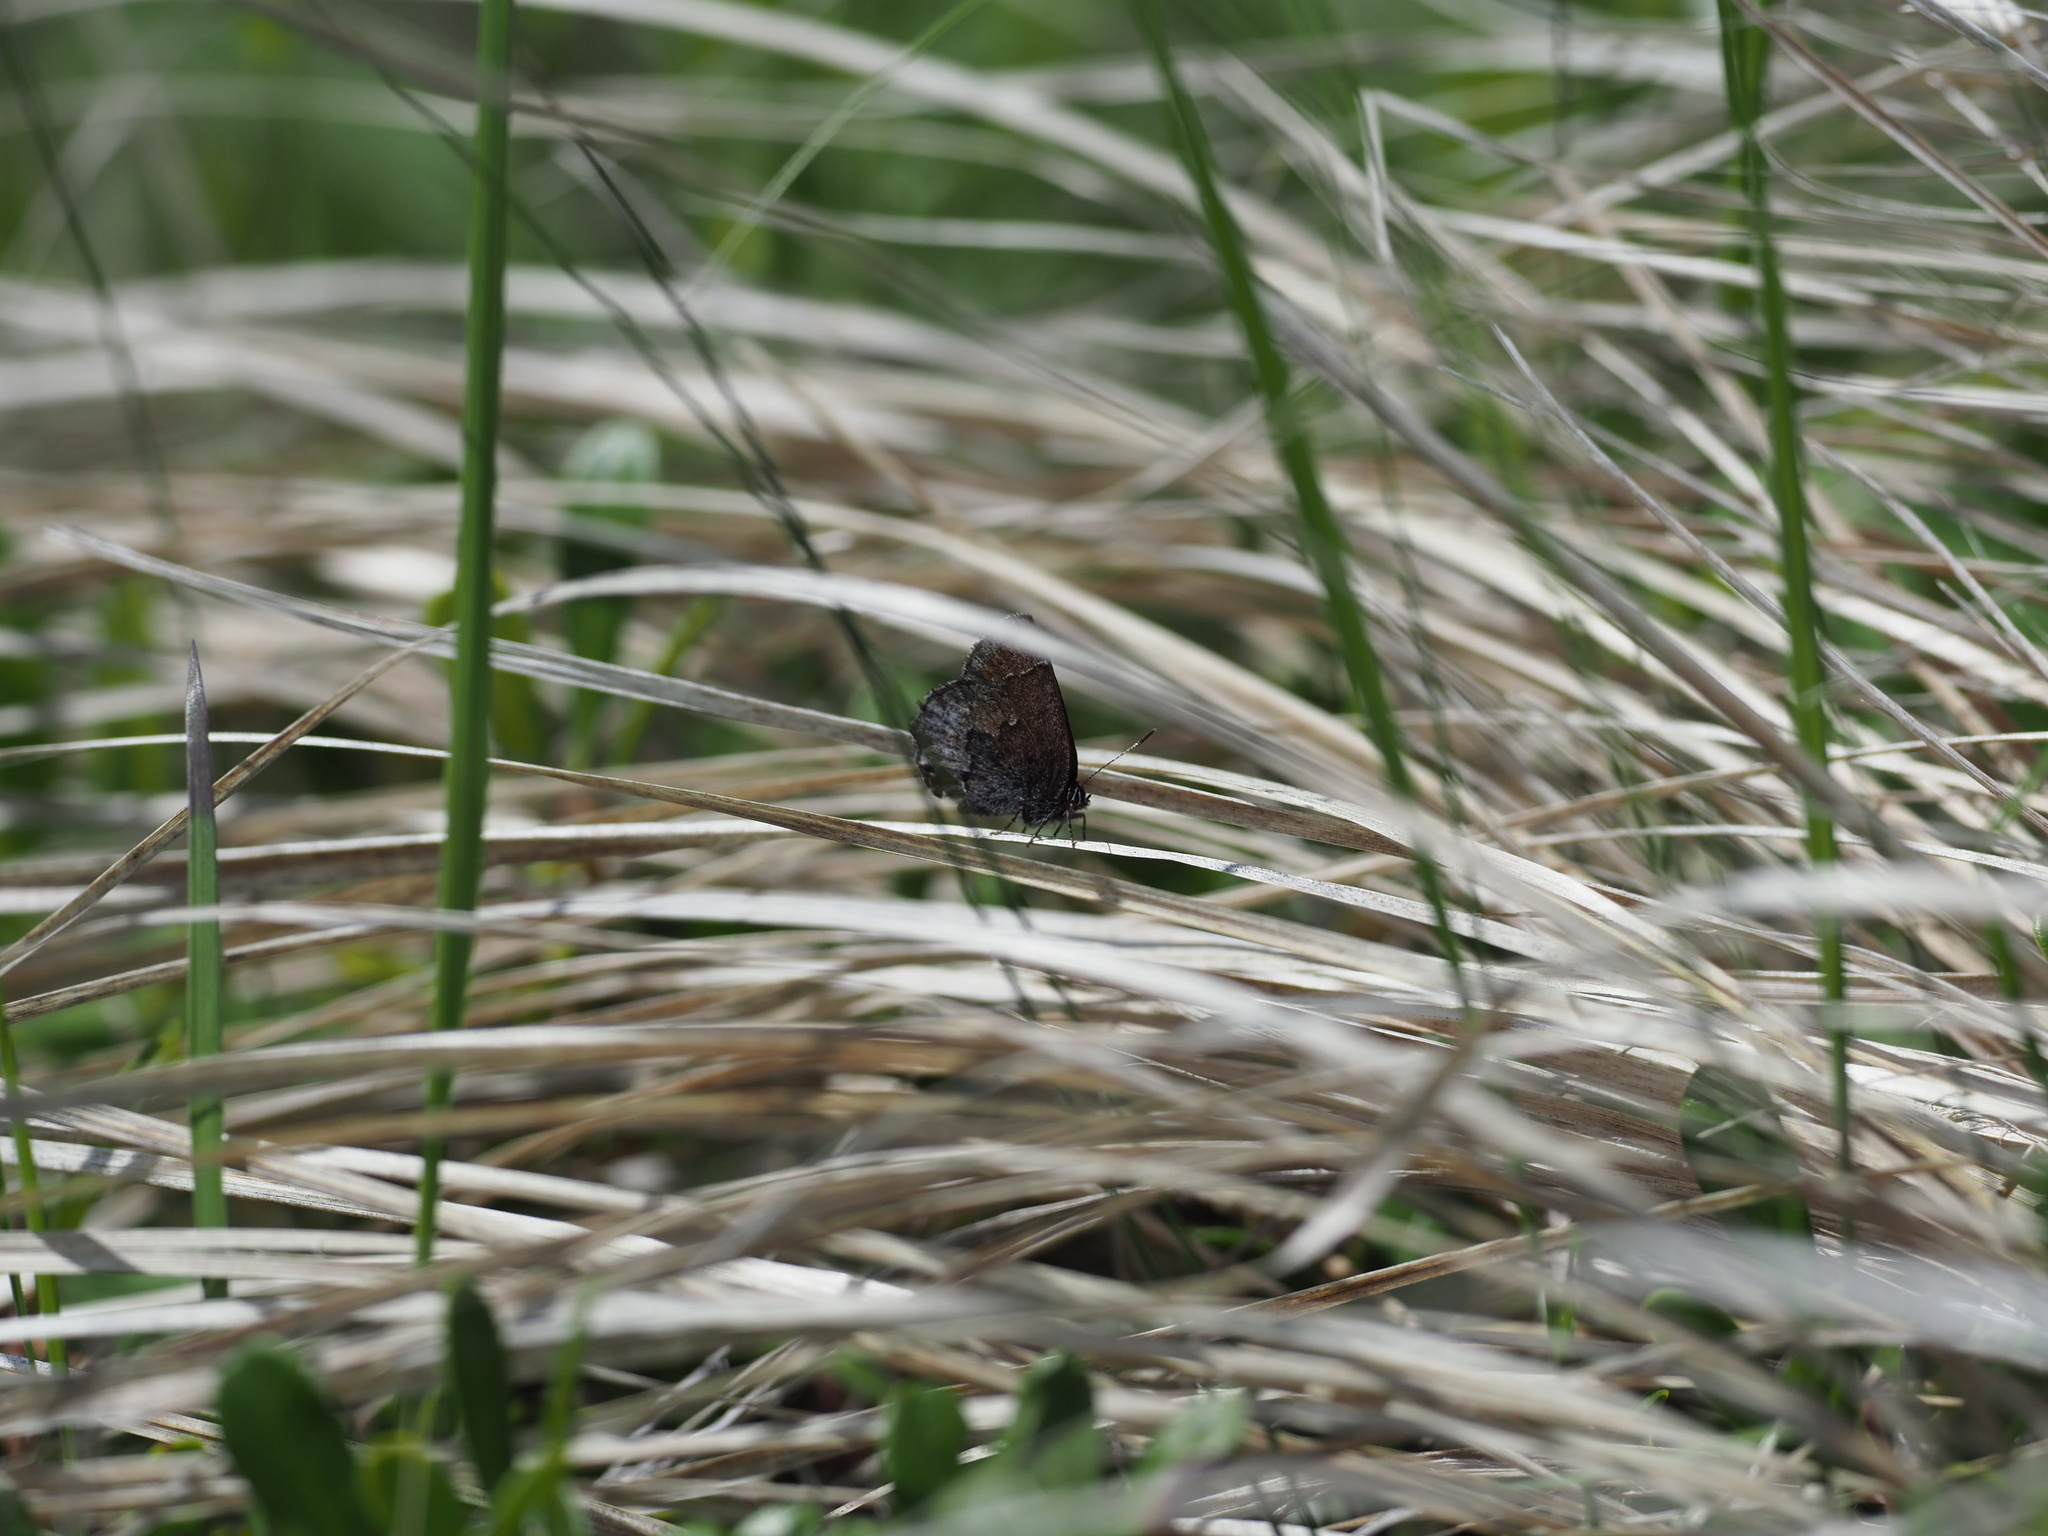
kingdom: Animalia
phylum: Arthropoda
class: Insecta
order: Lepidoptera
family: Lycaenidae
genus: Callophrys
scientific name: Callophrys polios
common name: Hoary elfin
